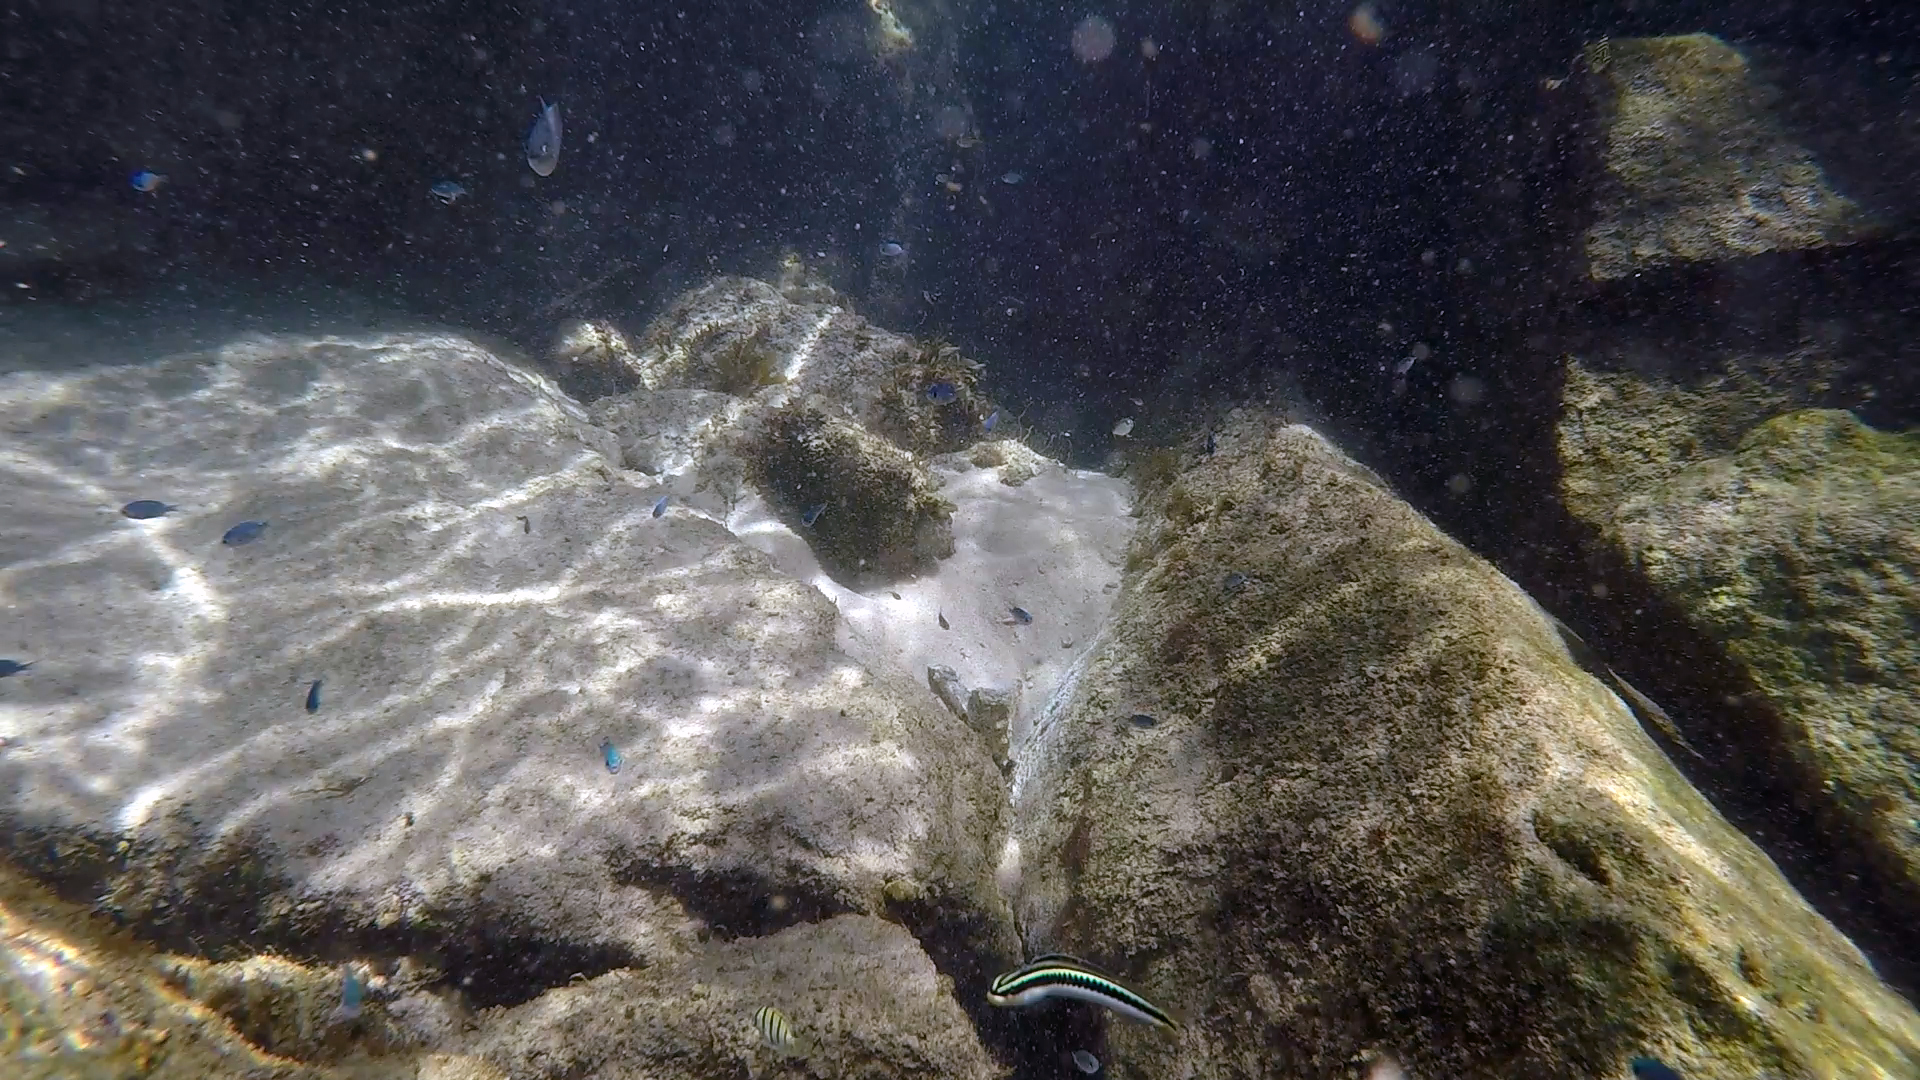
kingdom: Animalia
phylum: Chordata
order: Perciformes
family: Blenniidae
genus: Plagiotremus
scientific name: Plagiotremus tapeinosoma
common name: Hit and run blenny
